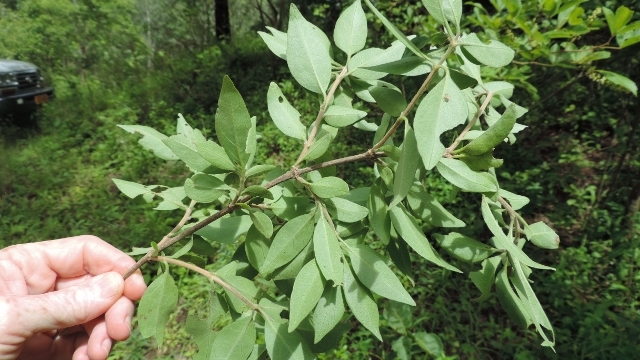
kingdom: Plantae
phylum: Tracheophyta
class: Magnoliopsida
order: Lamiales
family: Lamiaceae
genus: Volkameria
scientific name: Volkameria eriophylla
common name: Hairy tinderwood
